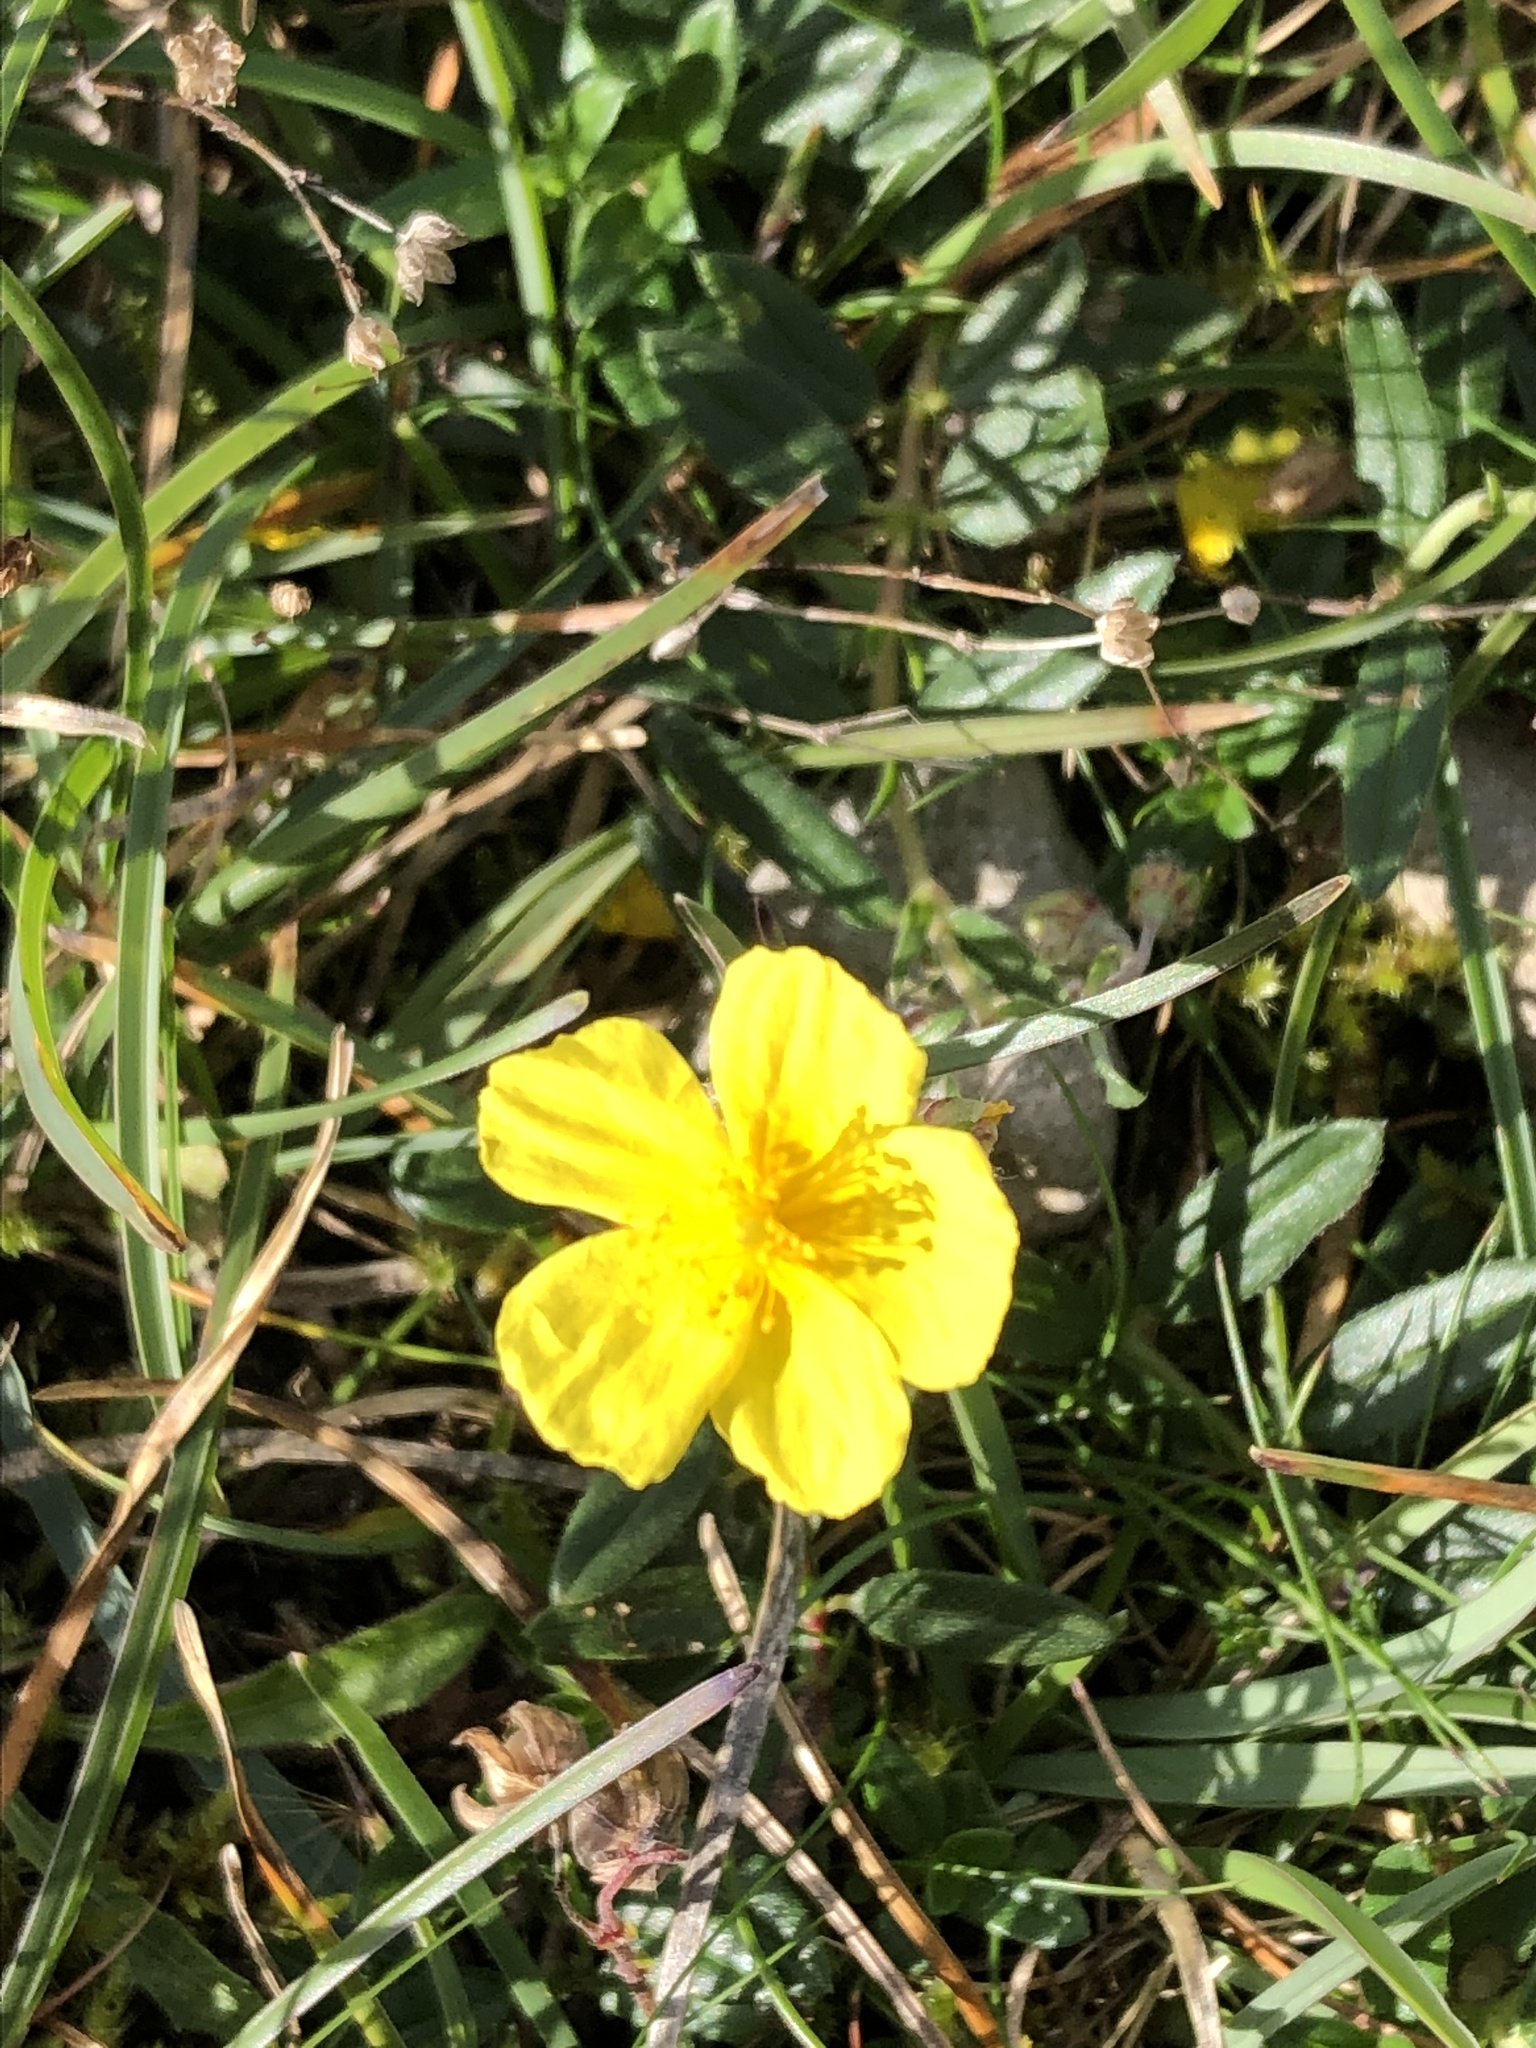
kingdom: Plantae
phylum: Tracheophyta
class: Magnoliopsida
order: Malvales
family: Cistaceae
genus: Helianthemum
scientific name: Helianthemum nummularium
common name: Common rock-rose
